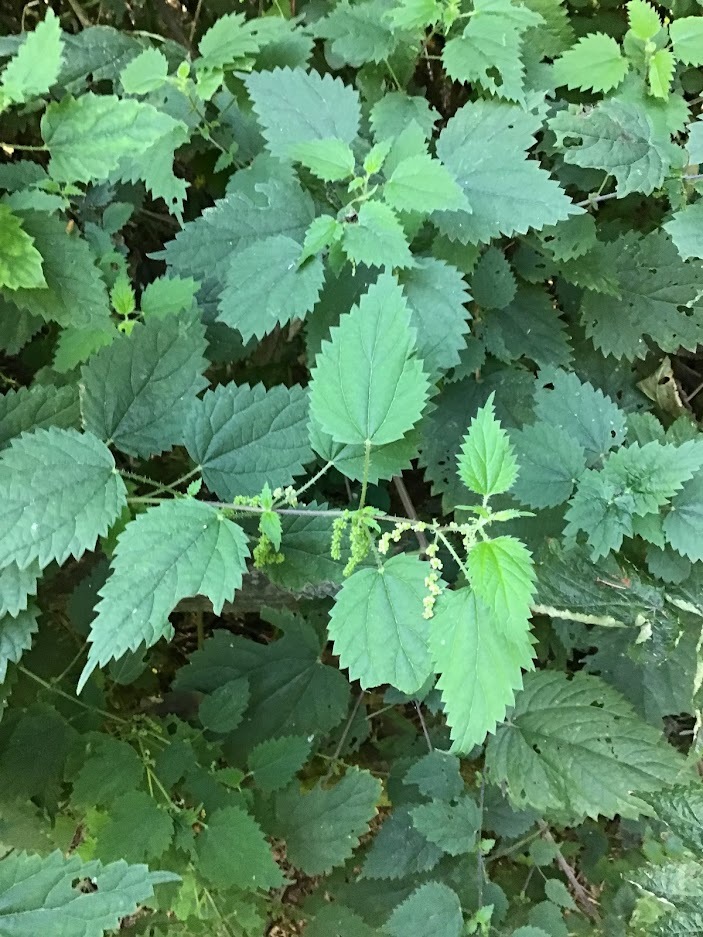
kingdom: Plantae
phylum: Tracheophyta
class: Magnoliopsida
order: Rosales
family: Urticaceae
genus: Urtica
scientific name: Urtica gracilis
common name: Slender stinging nettle
